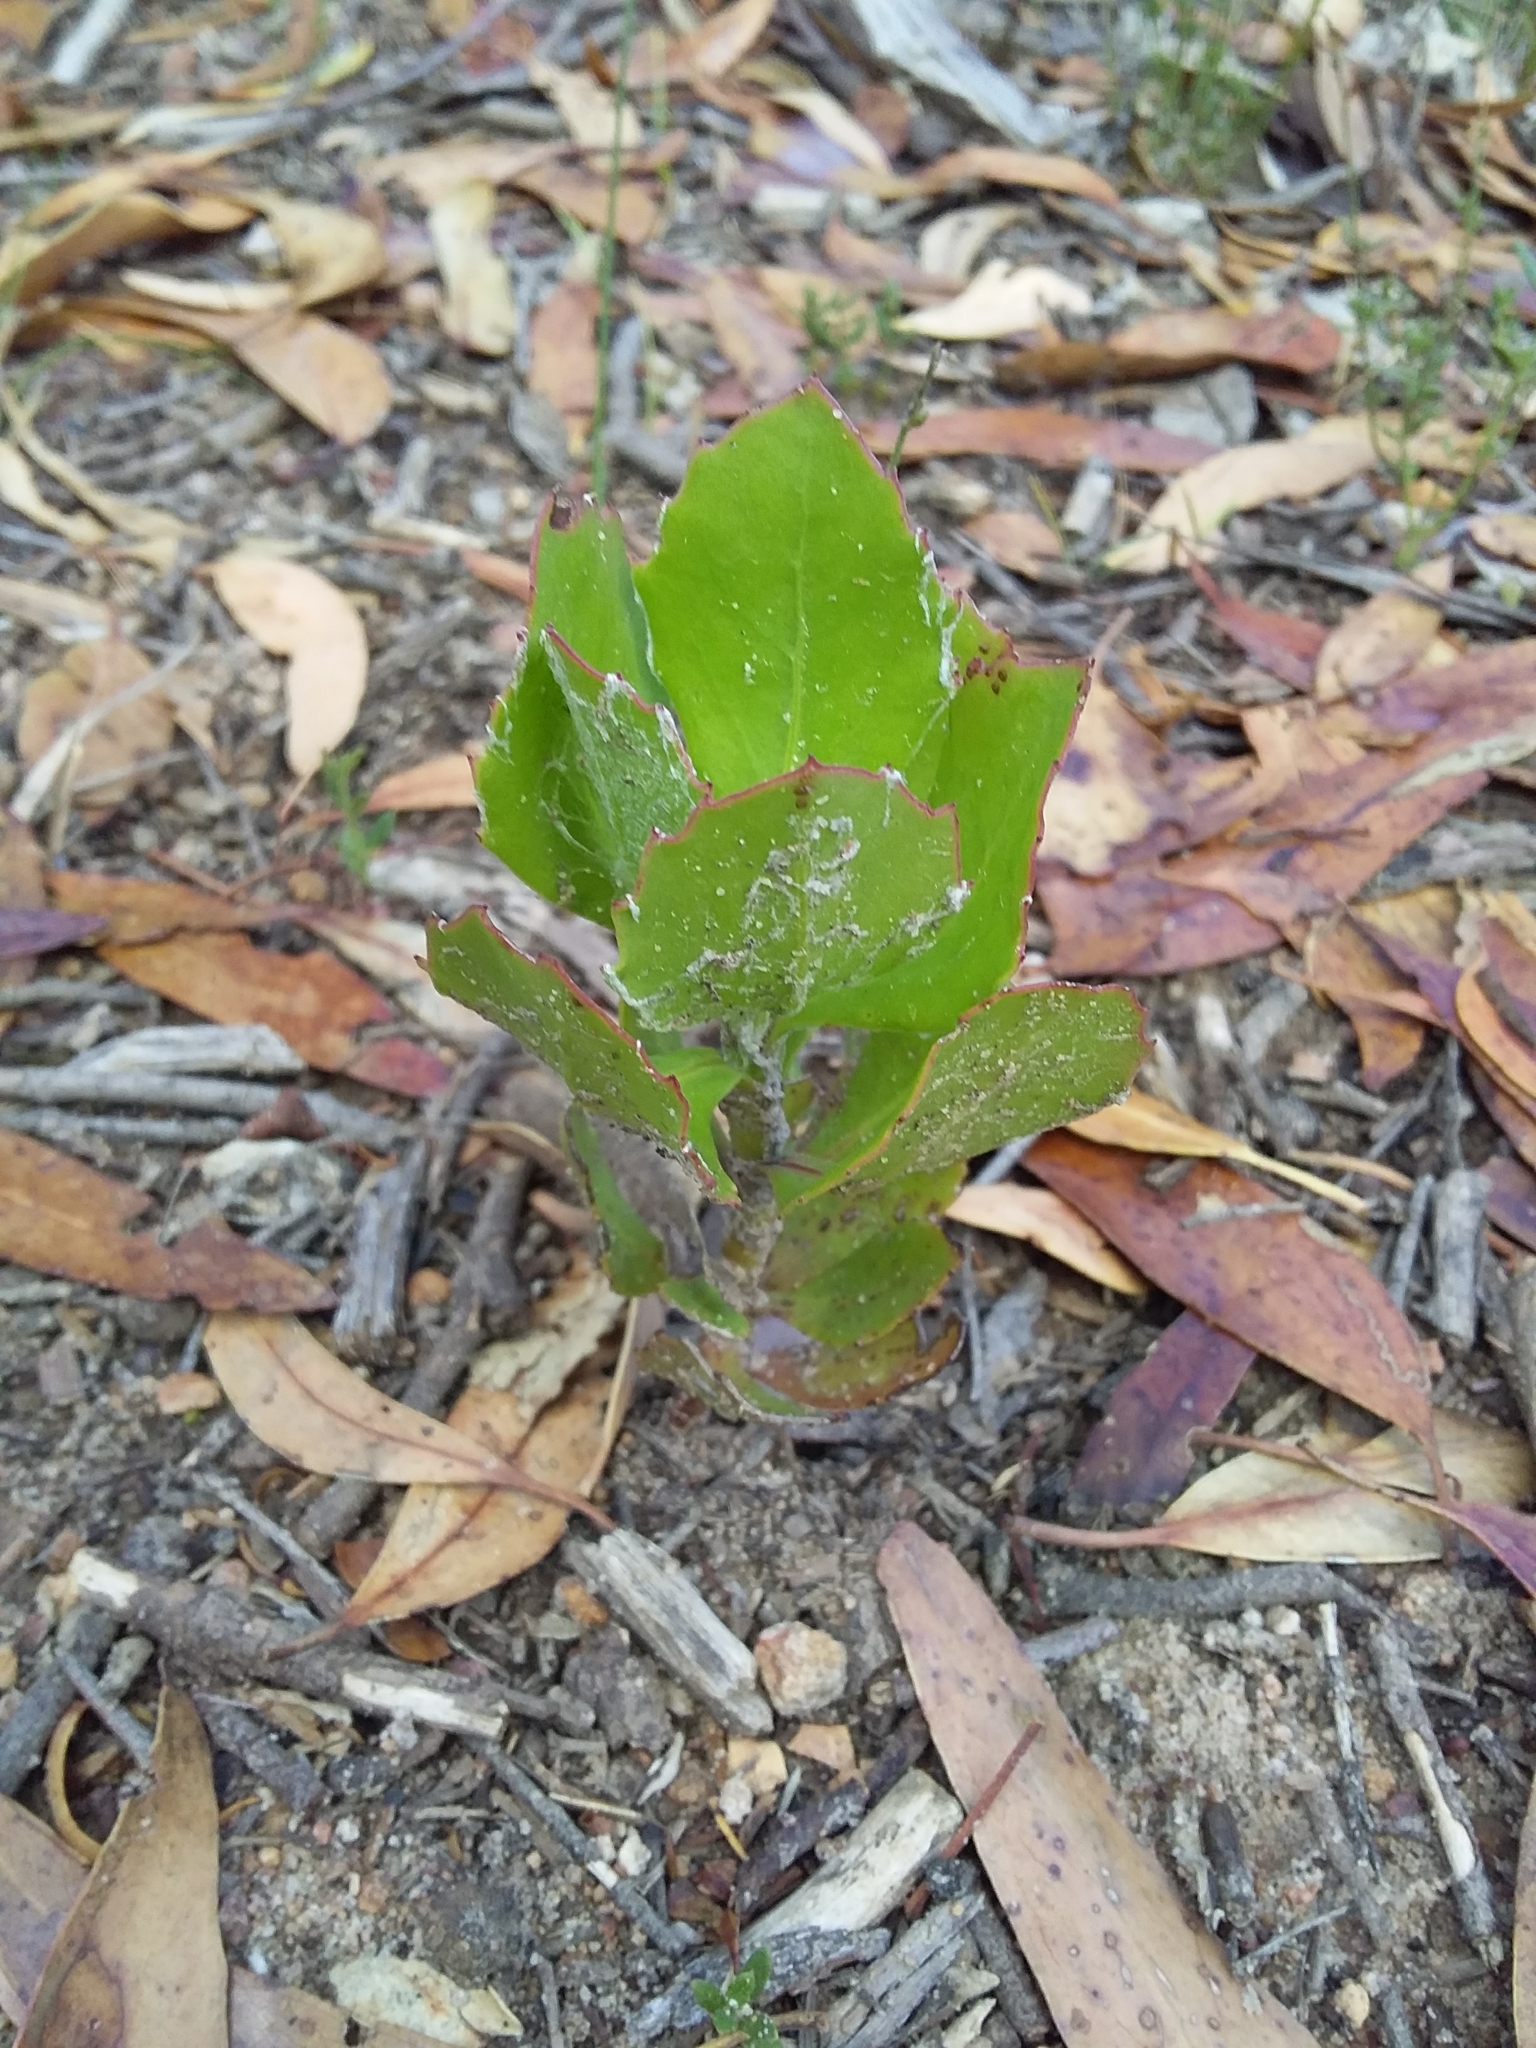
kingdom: Plantae
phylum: Tracheophyta
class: Magnoliopsida
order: Asterales
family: Asteraceae
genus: Osteospermum
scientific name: Osteospermum moniliferum
